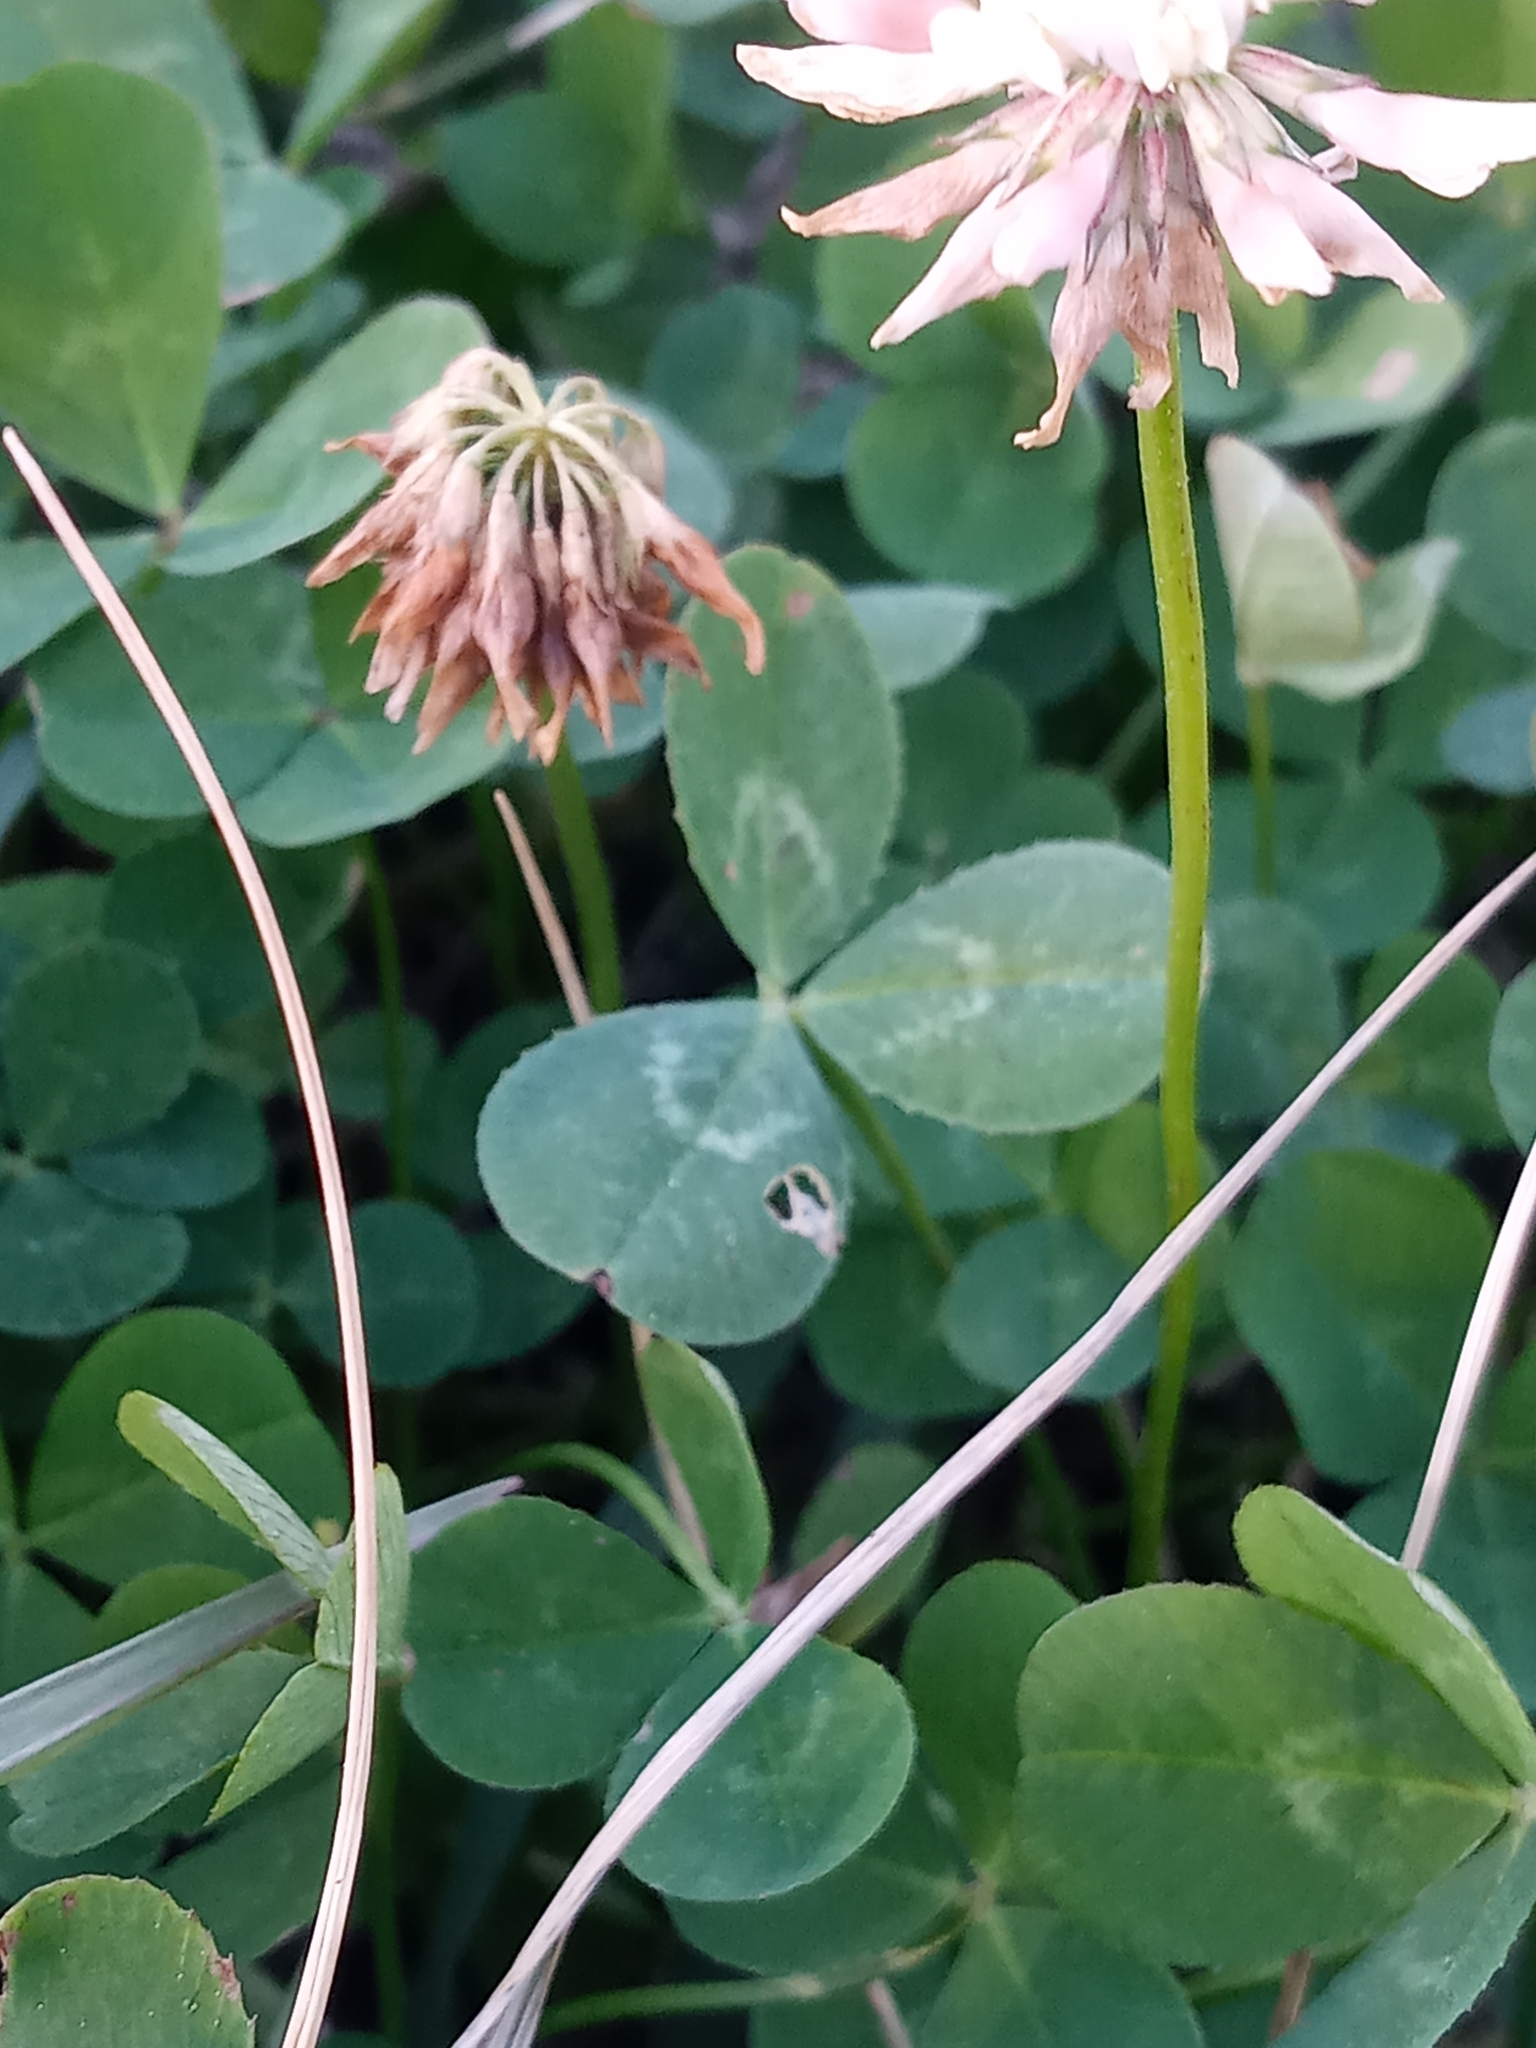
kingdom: Plantae
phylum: Tracheophyta
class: Magnoliopsida
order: Fabales
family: Fabaceae
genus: Trifolium
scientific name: Trifolium repens
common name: White clover
